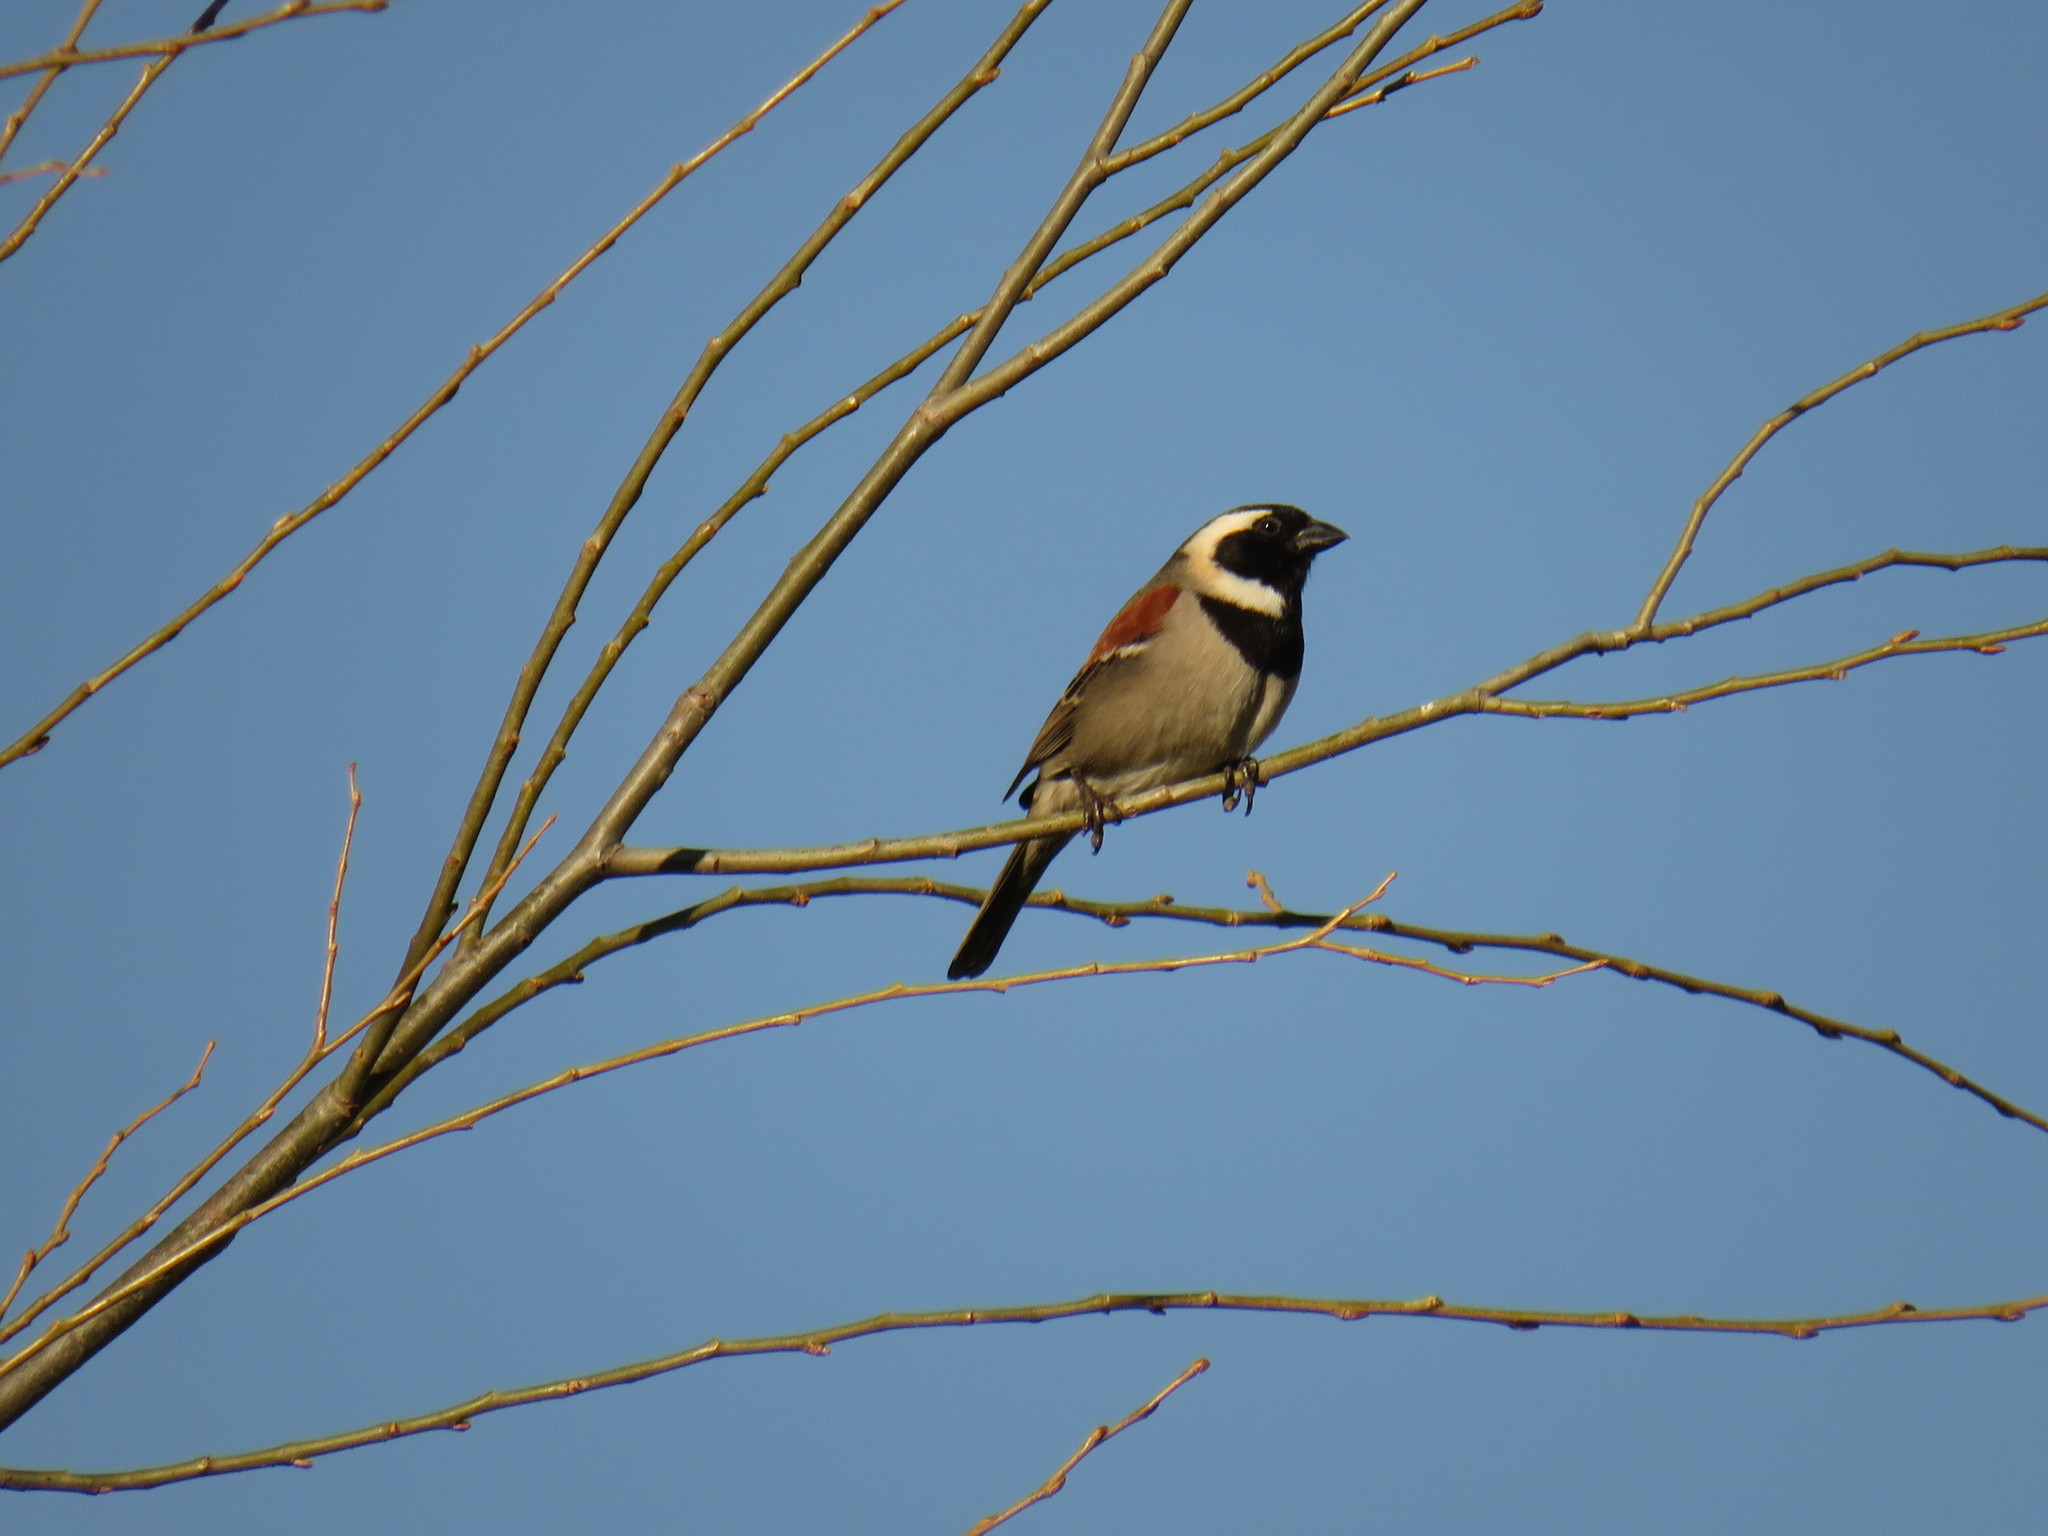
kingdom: Animalia
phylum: Chordata
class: Aves
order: Passeriformes
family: Passeridae
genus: Passer
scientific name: Passer melanurus
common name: Cape sparrow
